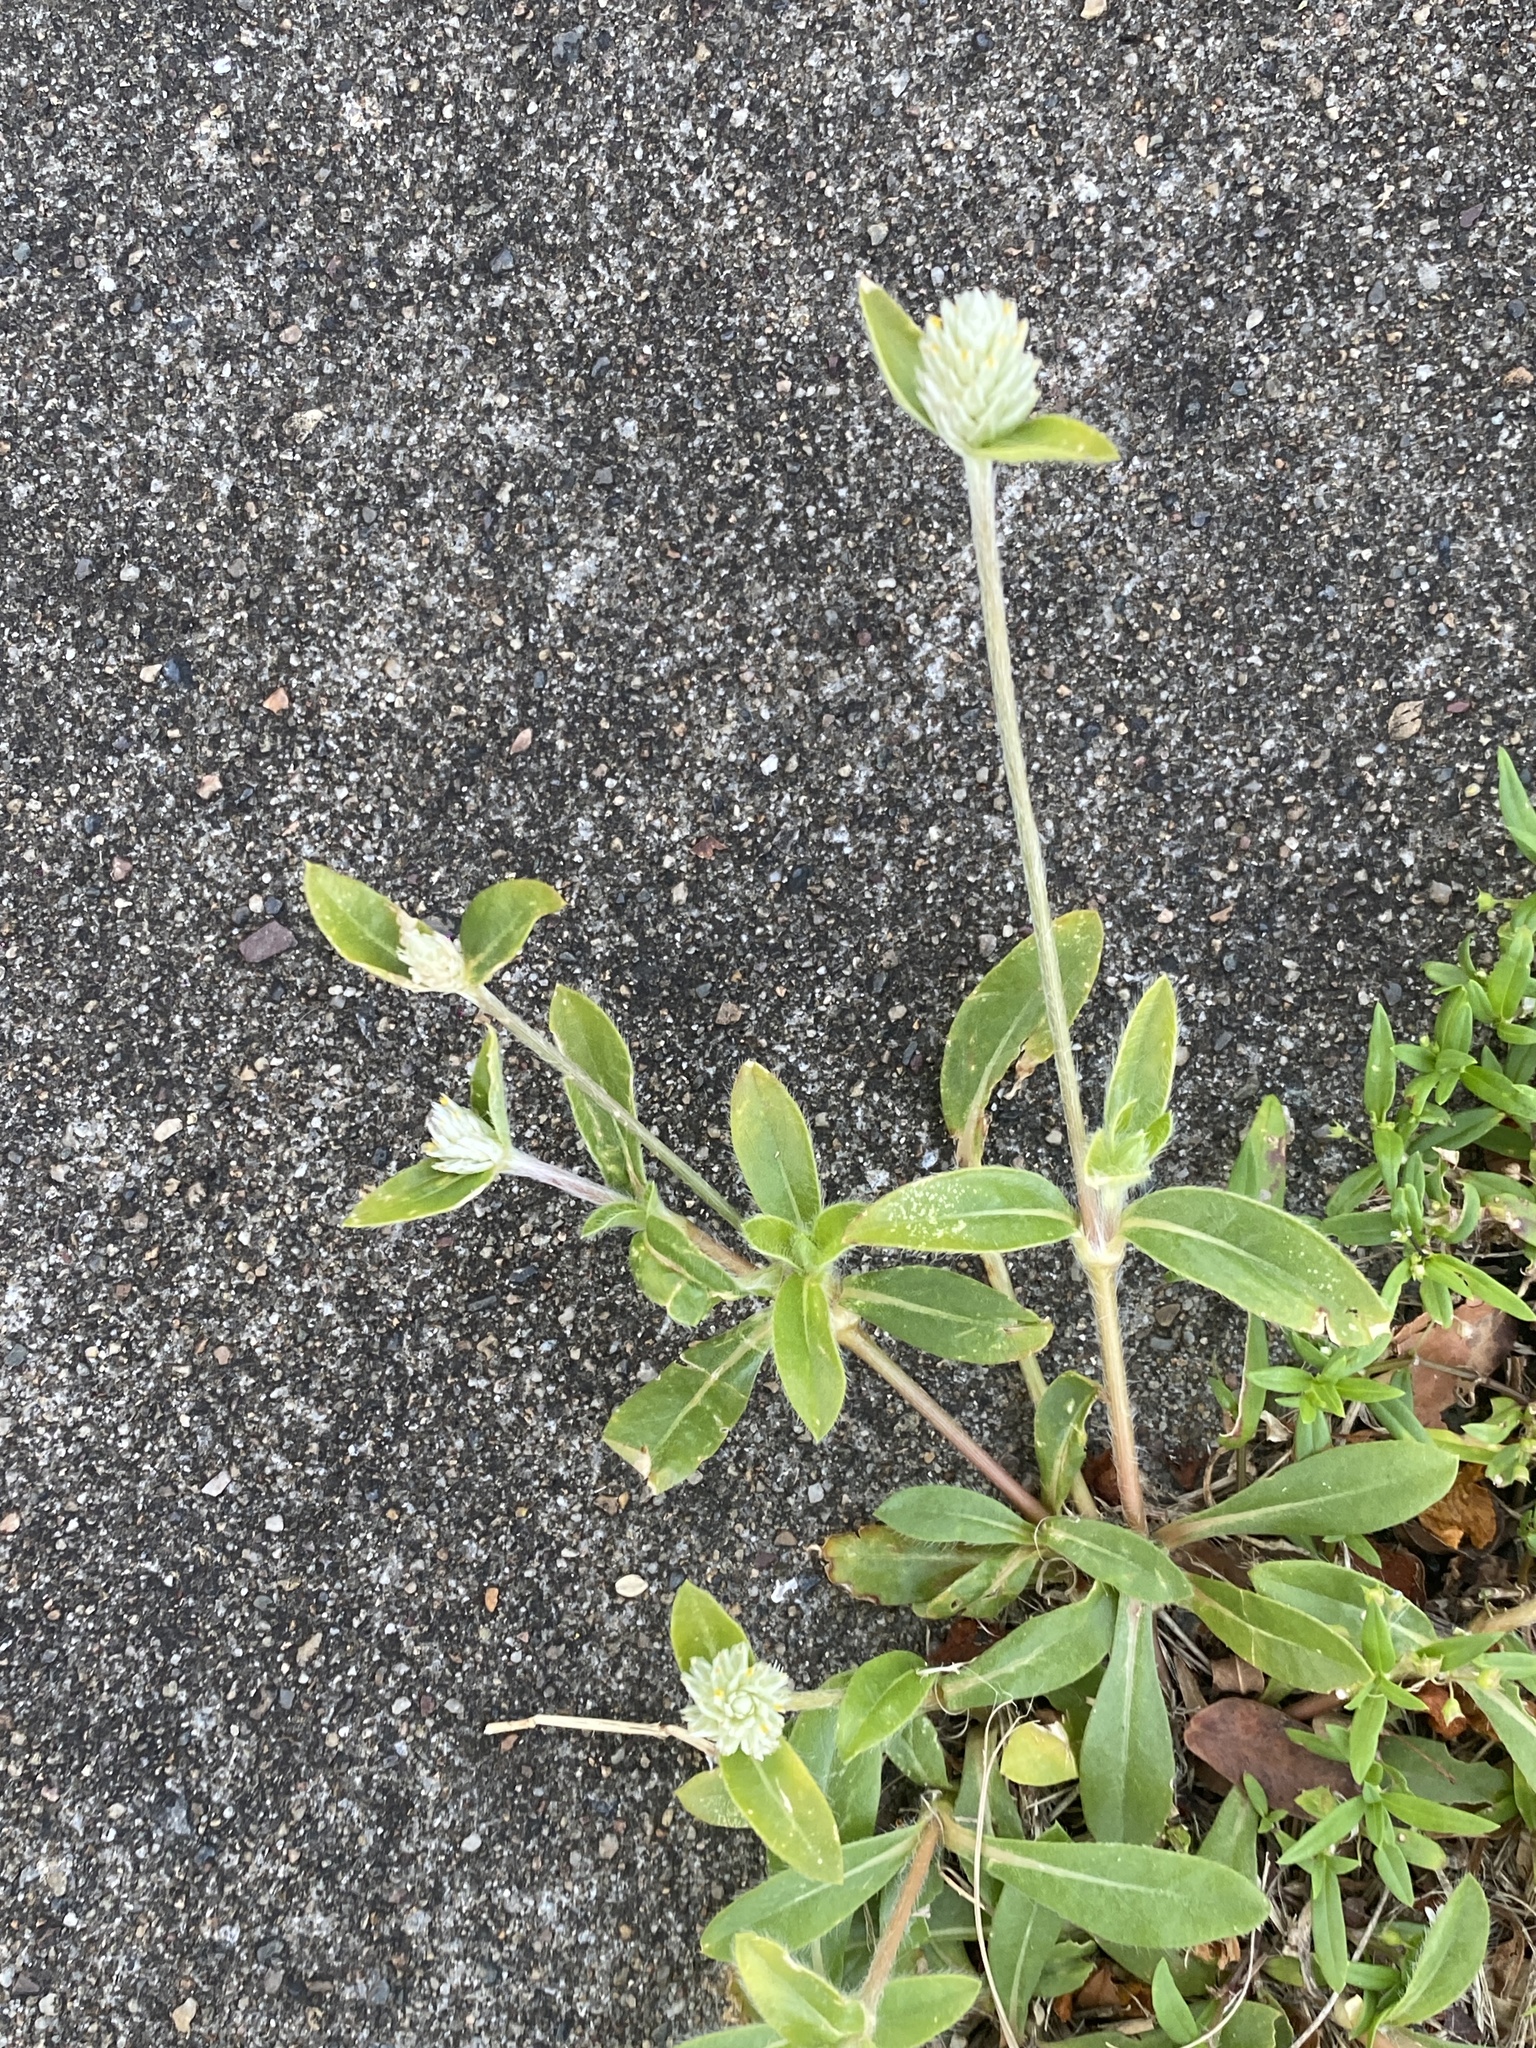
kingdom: Plantae
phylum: Tracheophyta
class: Magnoliopsida
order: Caryophyllales
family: Amaranthaceae
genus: Gomphrena
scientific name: Gomphrena celosioides
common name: Gomphrena-weed
